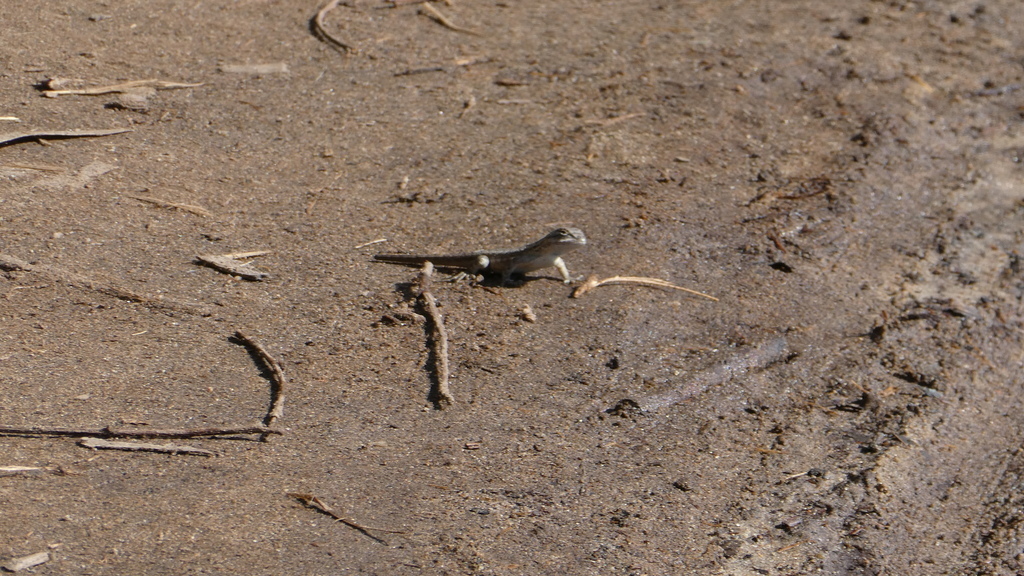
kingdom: Animalia
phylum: Chordata
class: Squamata
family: Phrynosomatidae
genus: Sceloporus
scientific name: Sceloporus occidentalis
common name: Western fence lizard
